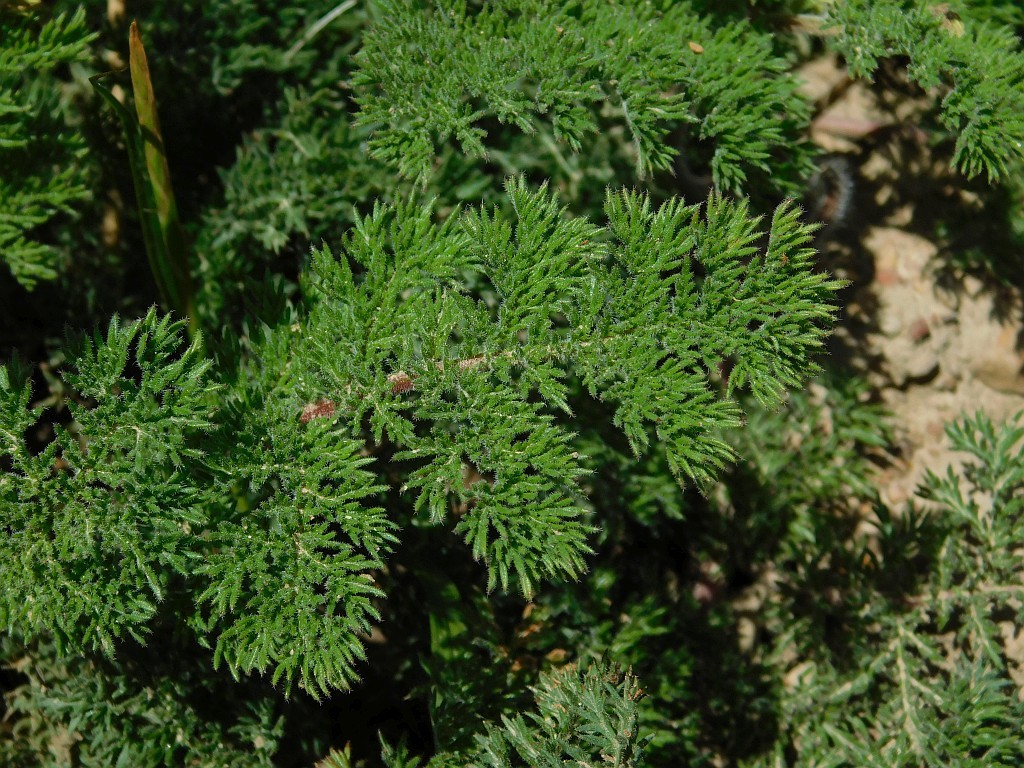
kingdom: Plantae
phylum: Tracheophyta
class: Magnoliopsida
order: Geraniales
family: Geraniaceae
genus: Pelargonium
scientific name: Pelargonium triste
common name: Night-scent pelargonium
